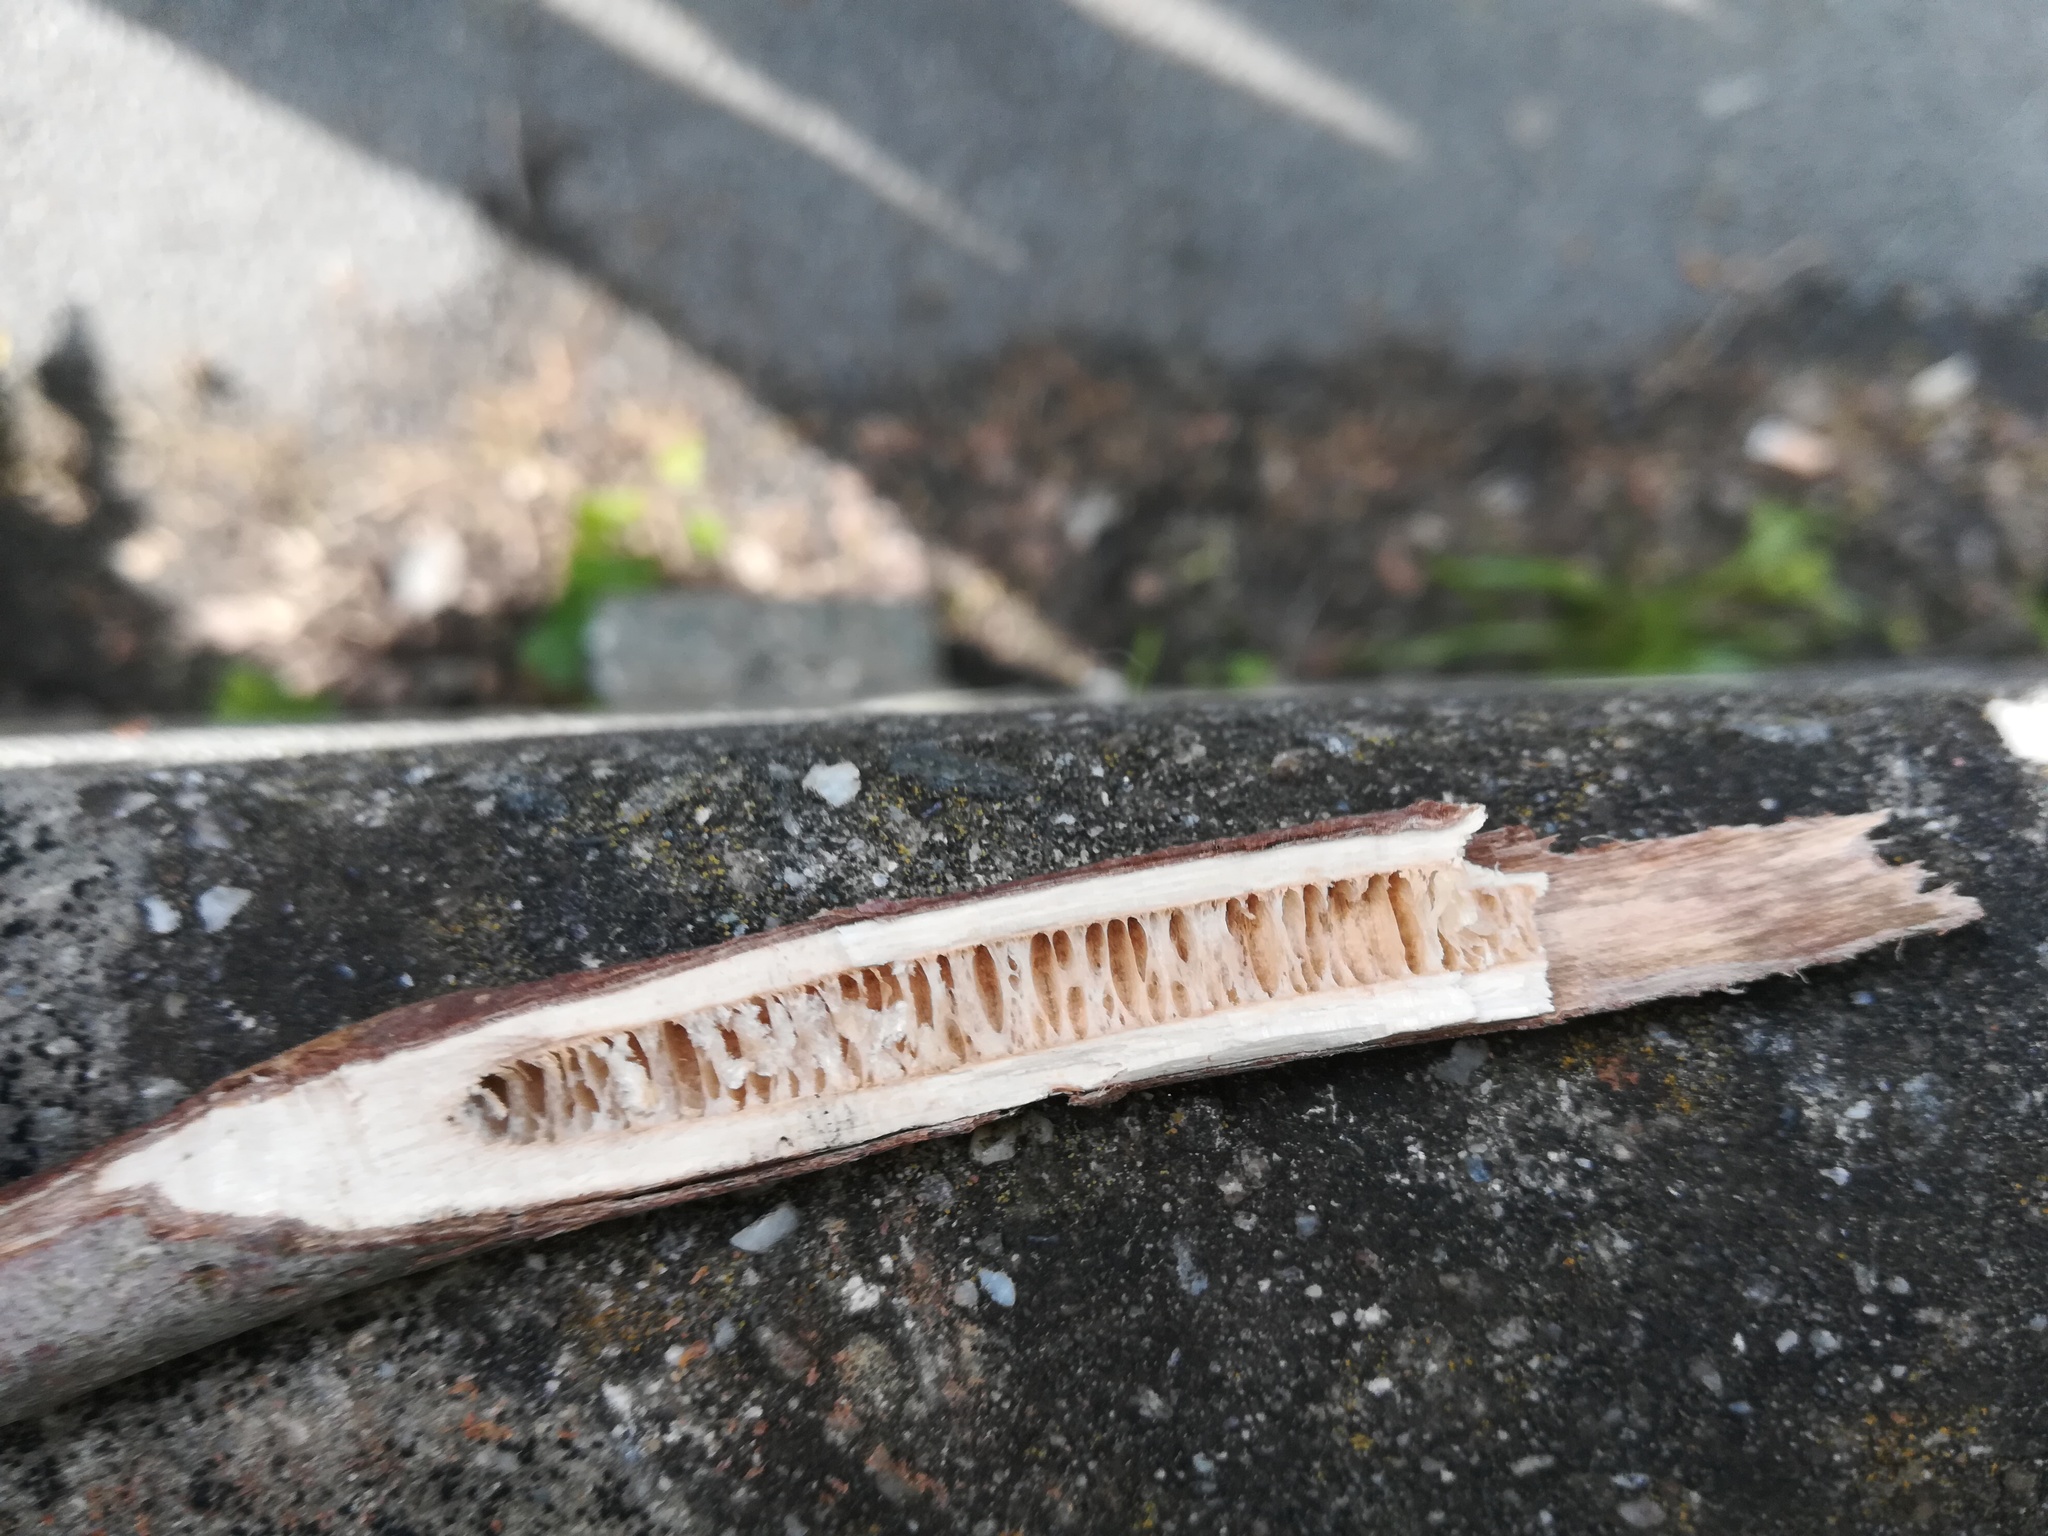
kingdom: Plantae
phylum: Tracheophyta
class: Magnoliopsida
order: Fagales
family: Juglandaceae
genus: Juglans
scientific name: Juglans regia
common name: Walnut
